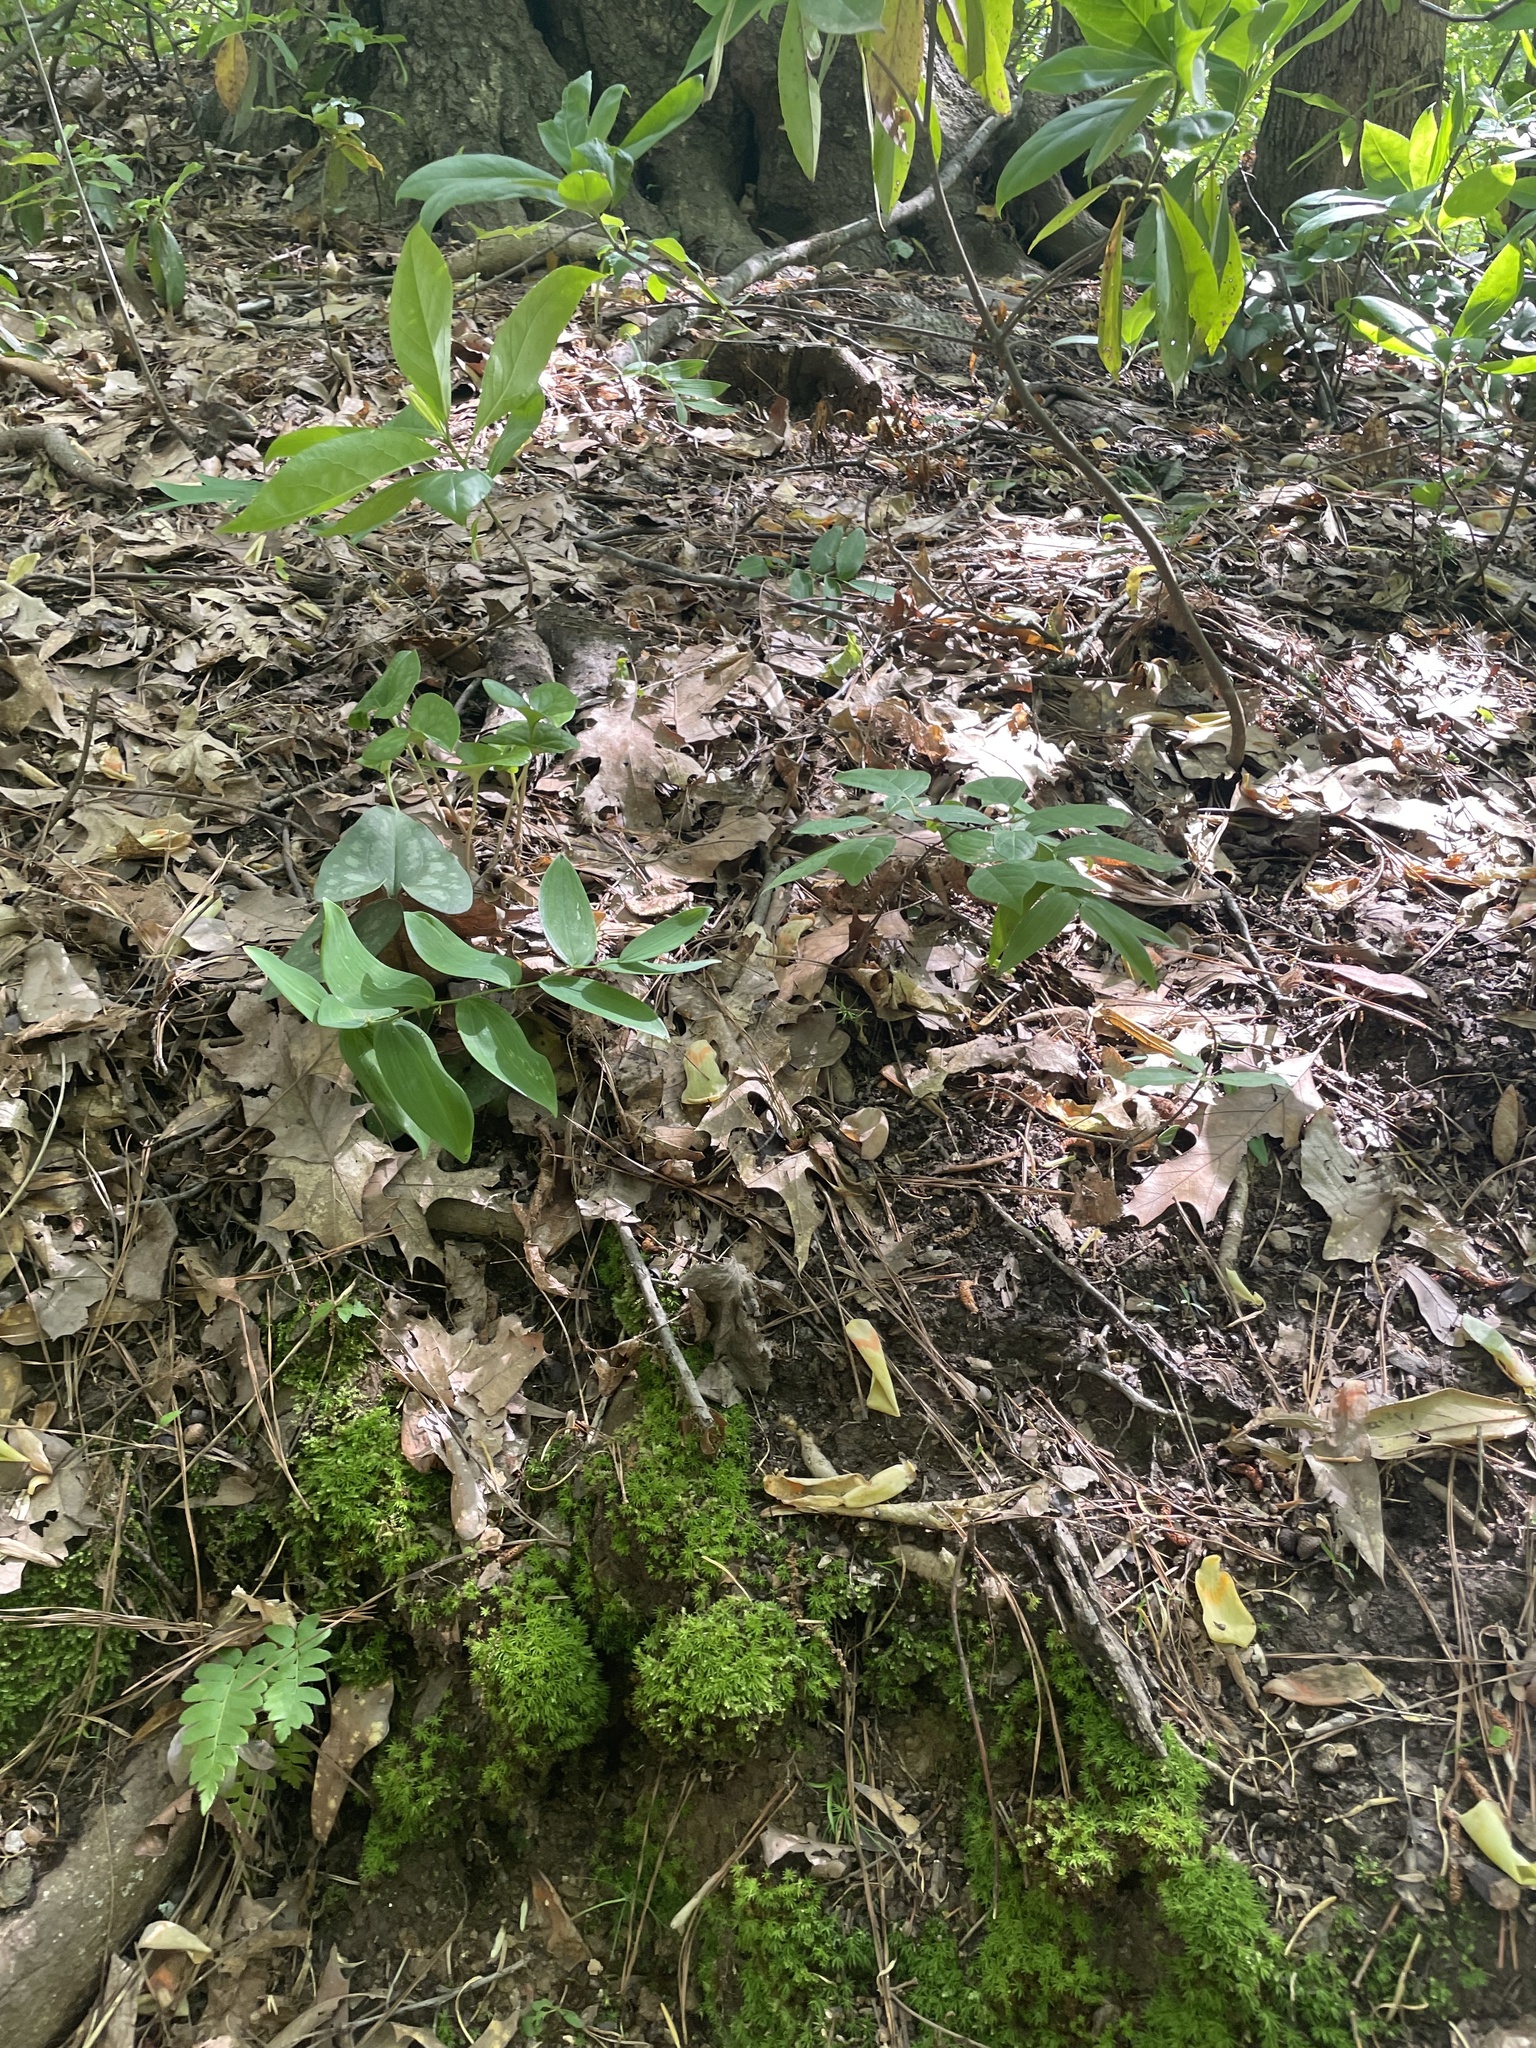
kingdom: Plantae
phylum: Tracheophyta
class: Liliopsida
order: Asparagales
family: Asparagaceae
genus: Polygonatum
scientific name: Polygonatum biflorum
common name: American solomon's-seal
